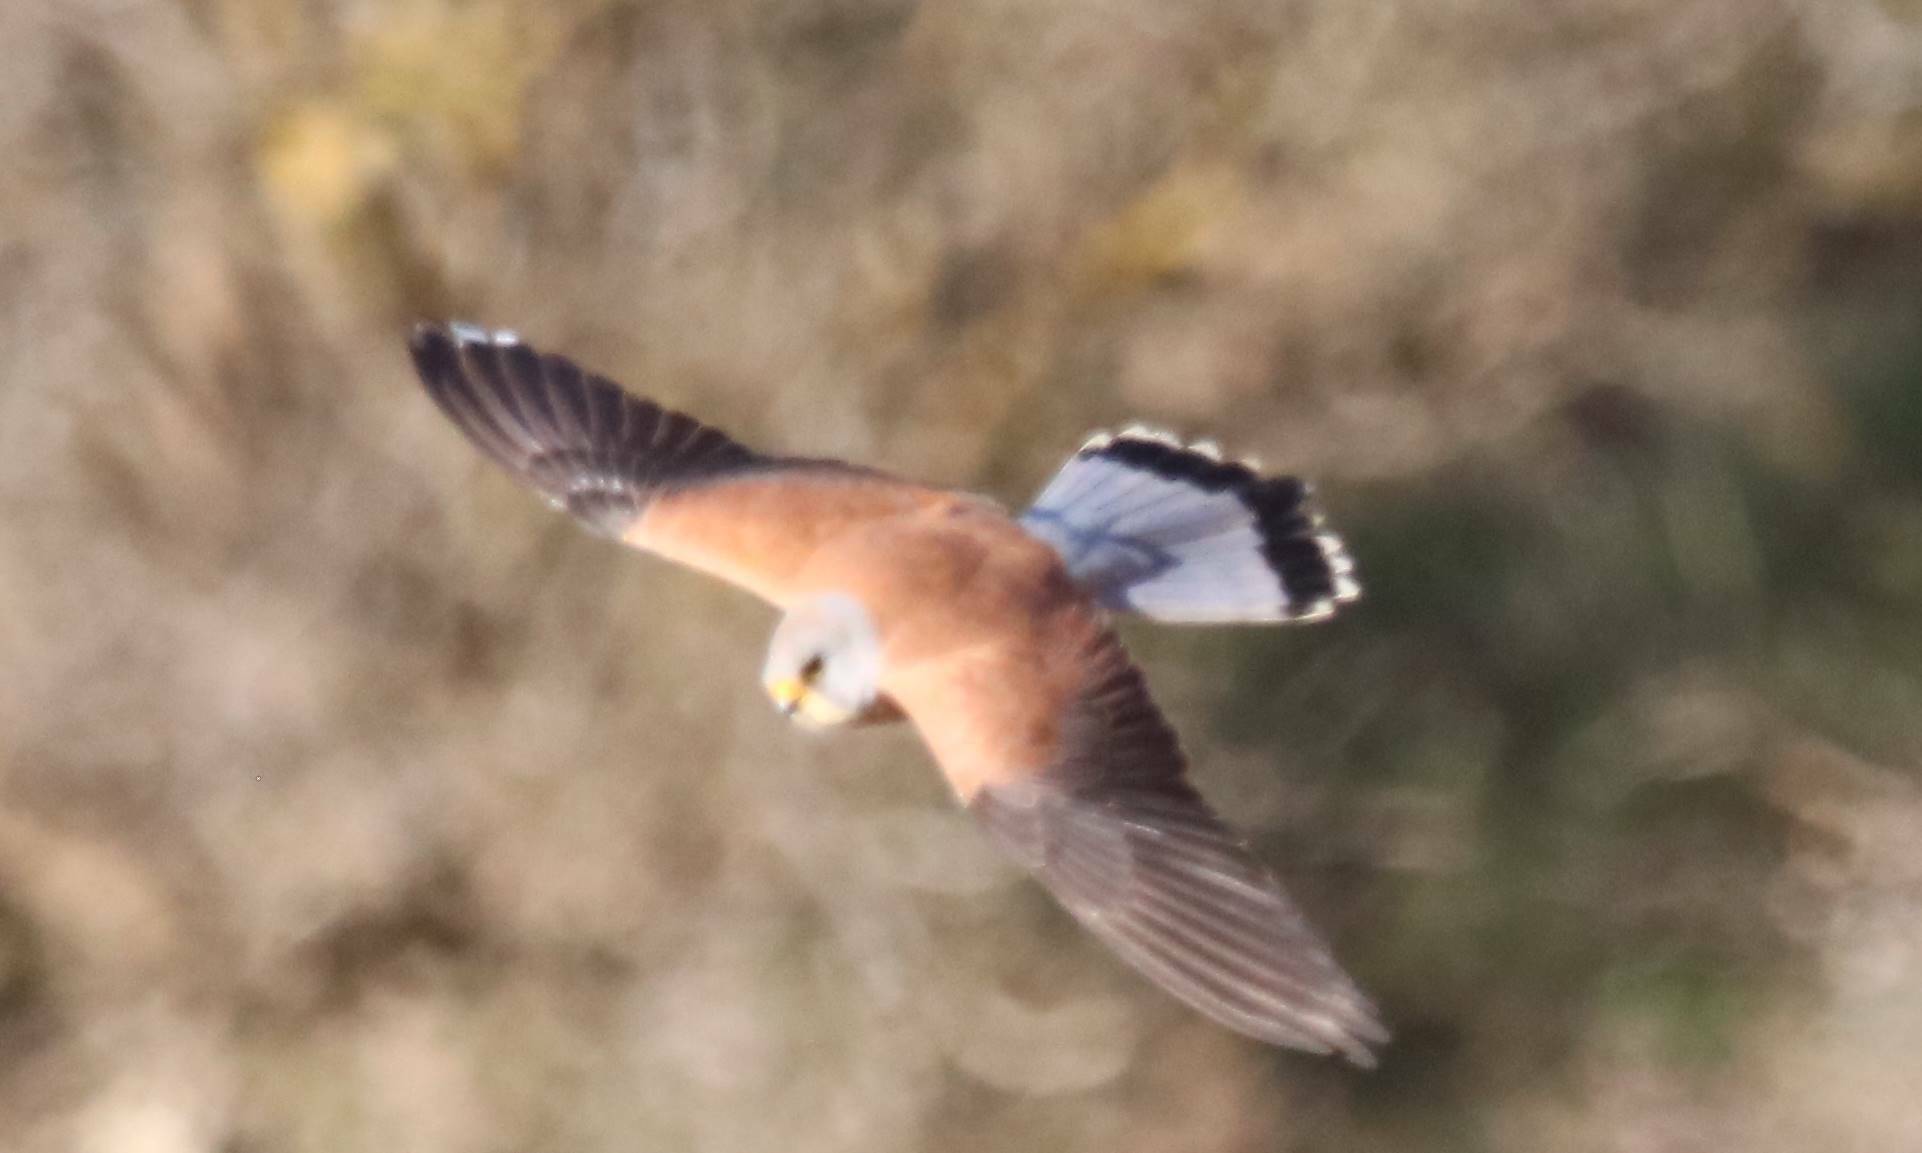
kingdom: Animalia
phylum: Chordata
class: Aves
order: Falconiformes
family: Falconidae
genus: Falco
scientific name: Falco naumanni
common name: Lesser kestrel
